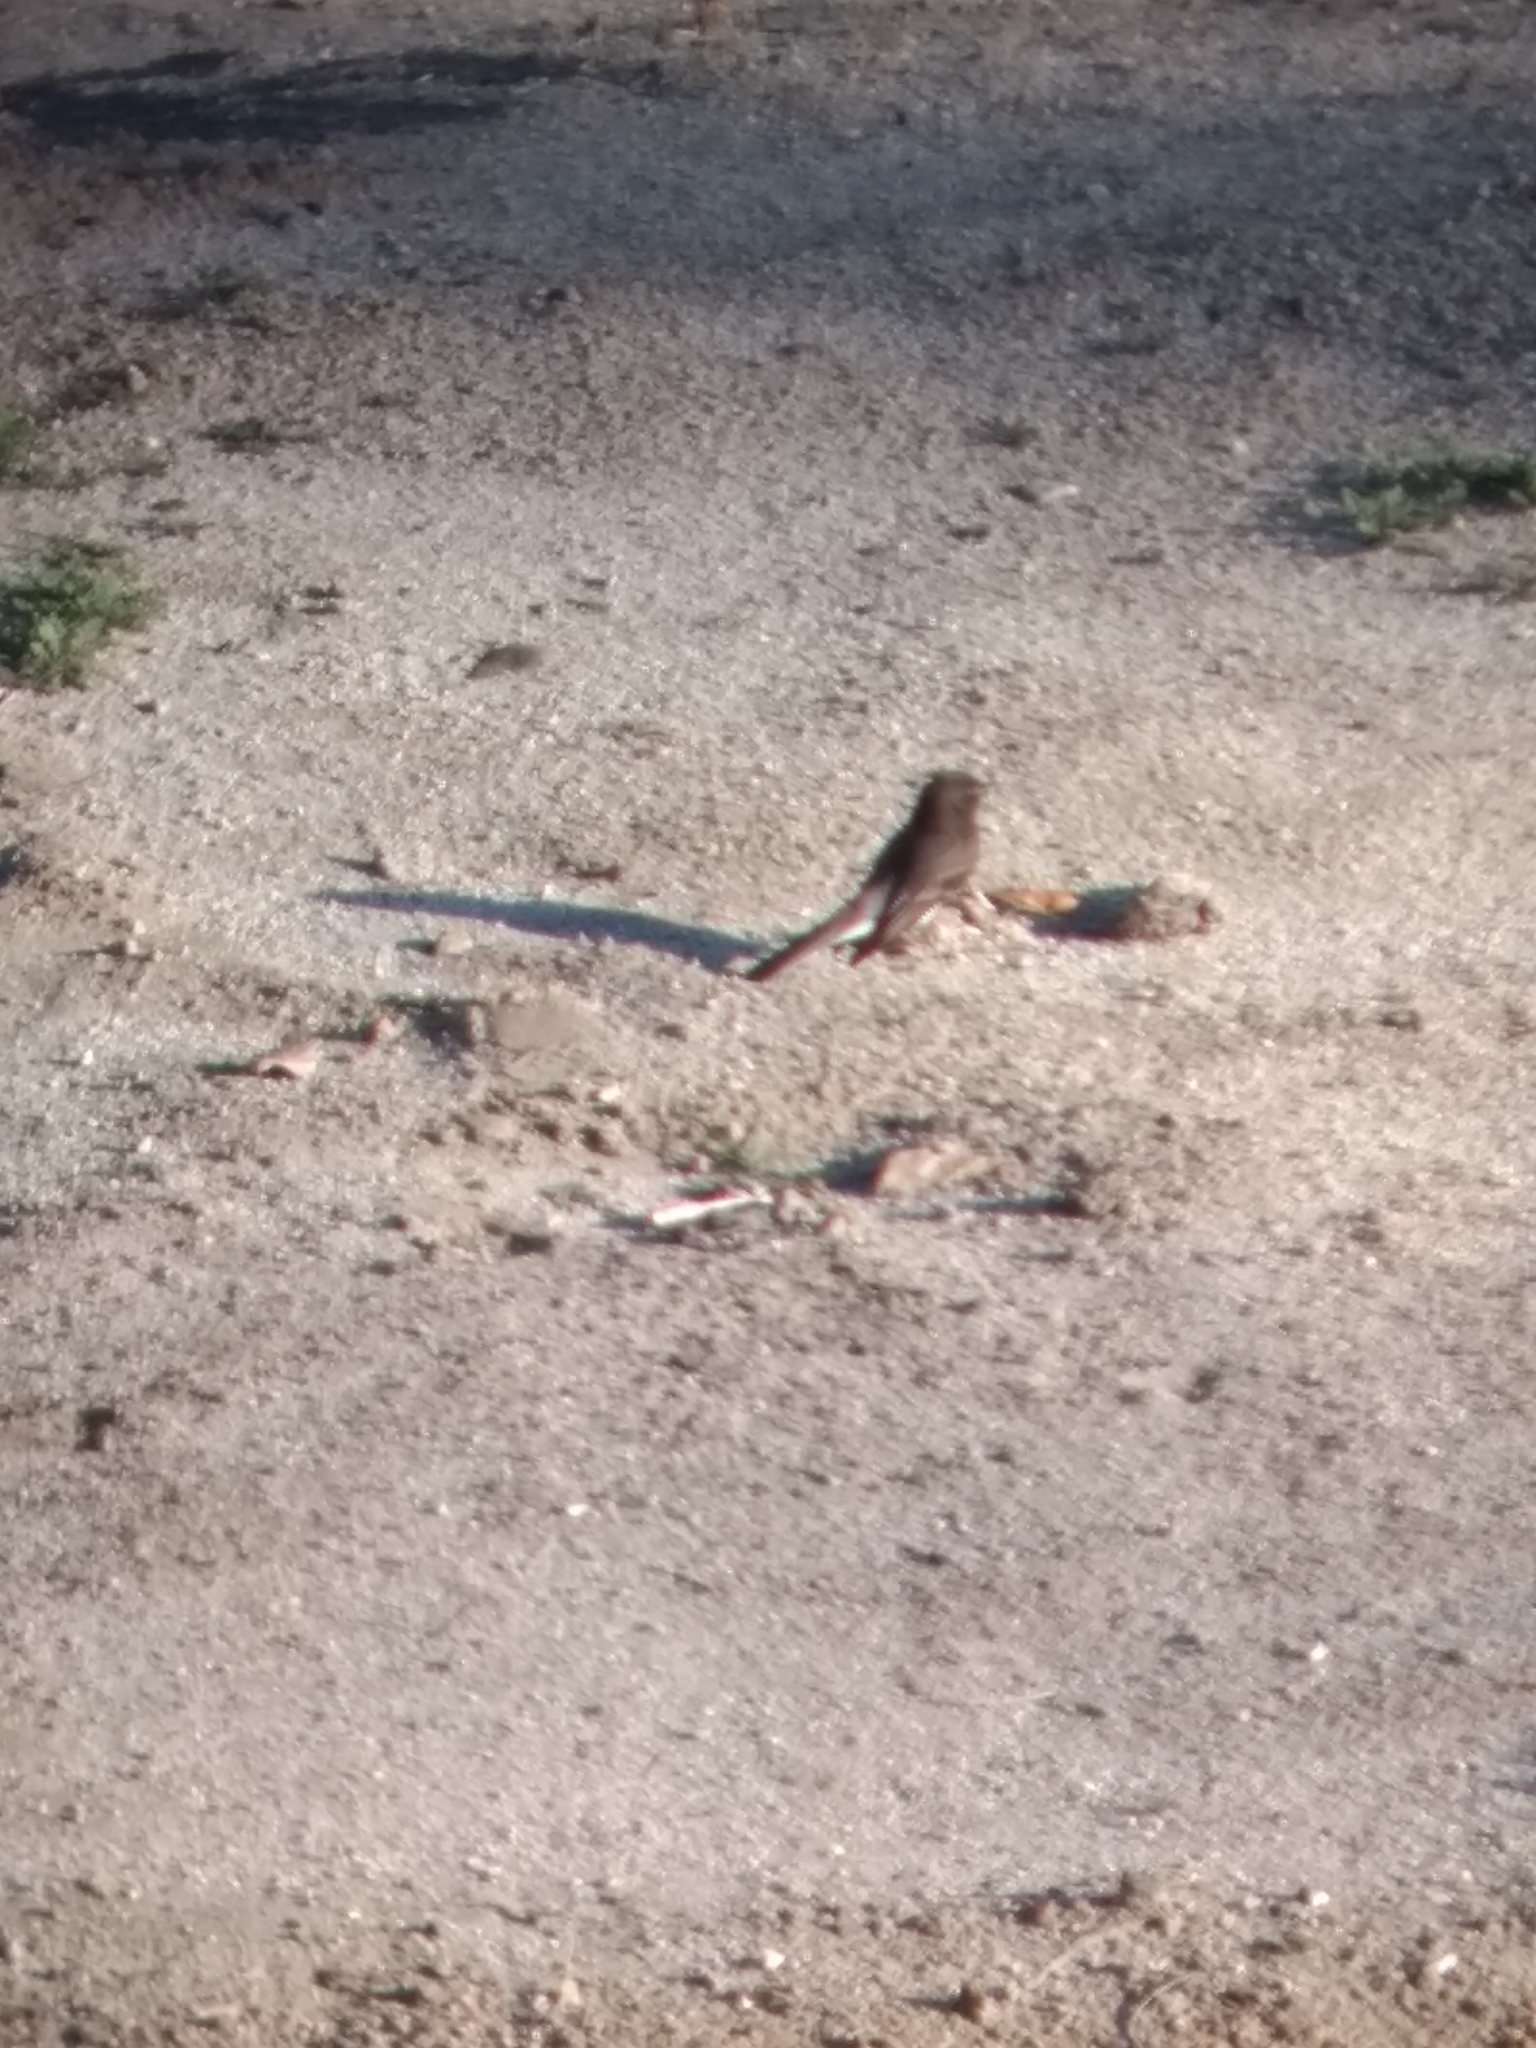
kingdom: Animalia
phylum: Chordata
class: Aves
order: Passeriformes
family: Tyrannidae
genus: Sayornis
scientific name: Sayornis nigricans
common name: Black phoebe
